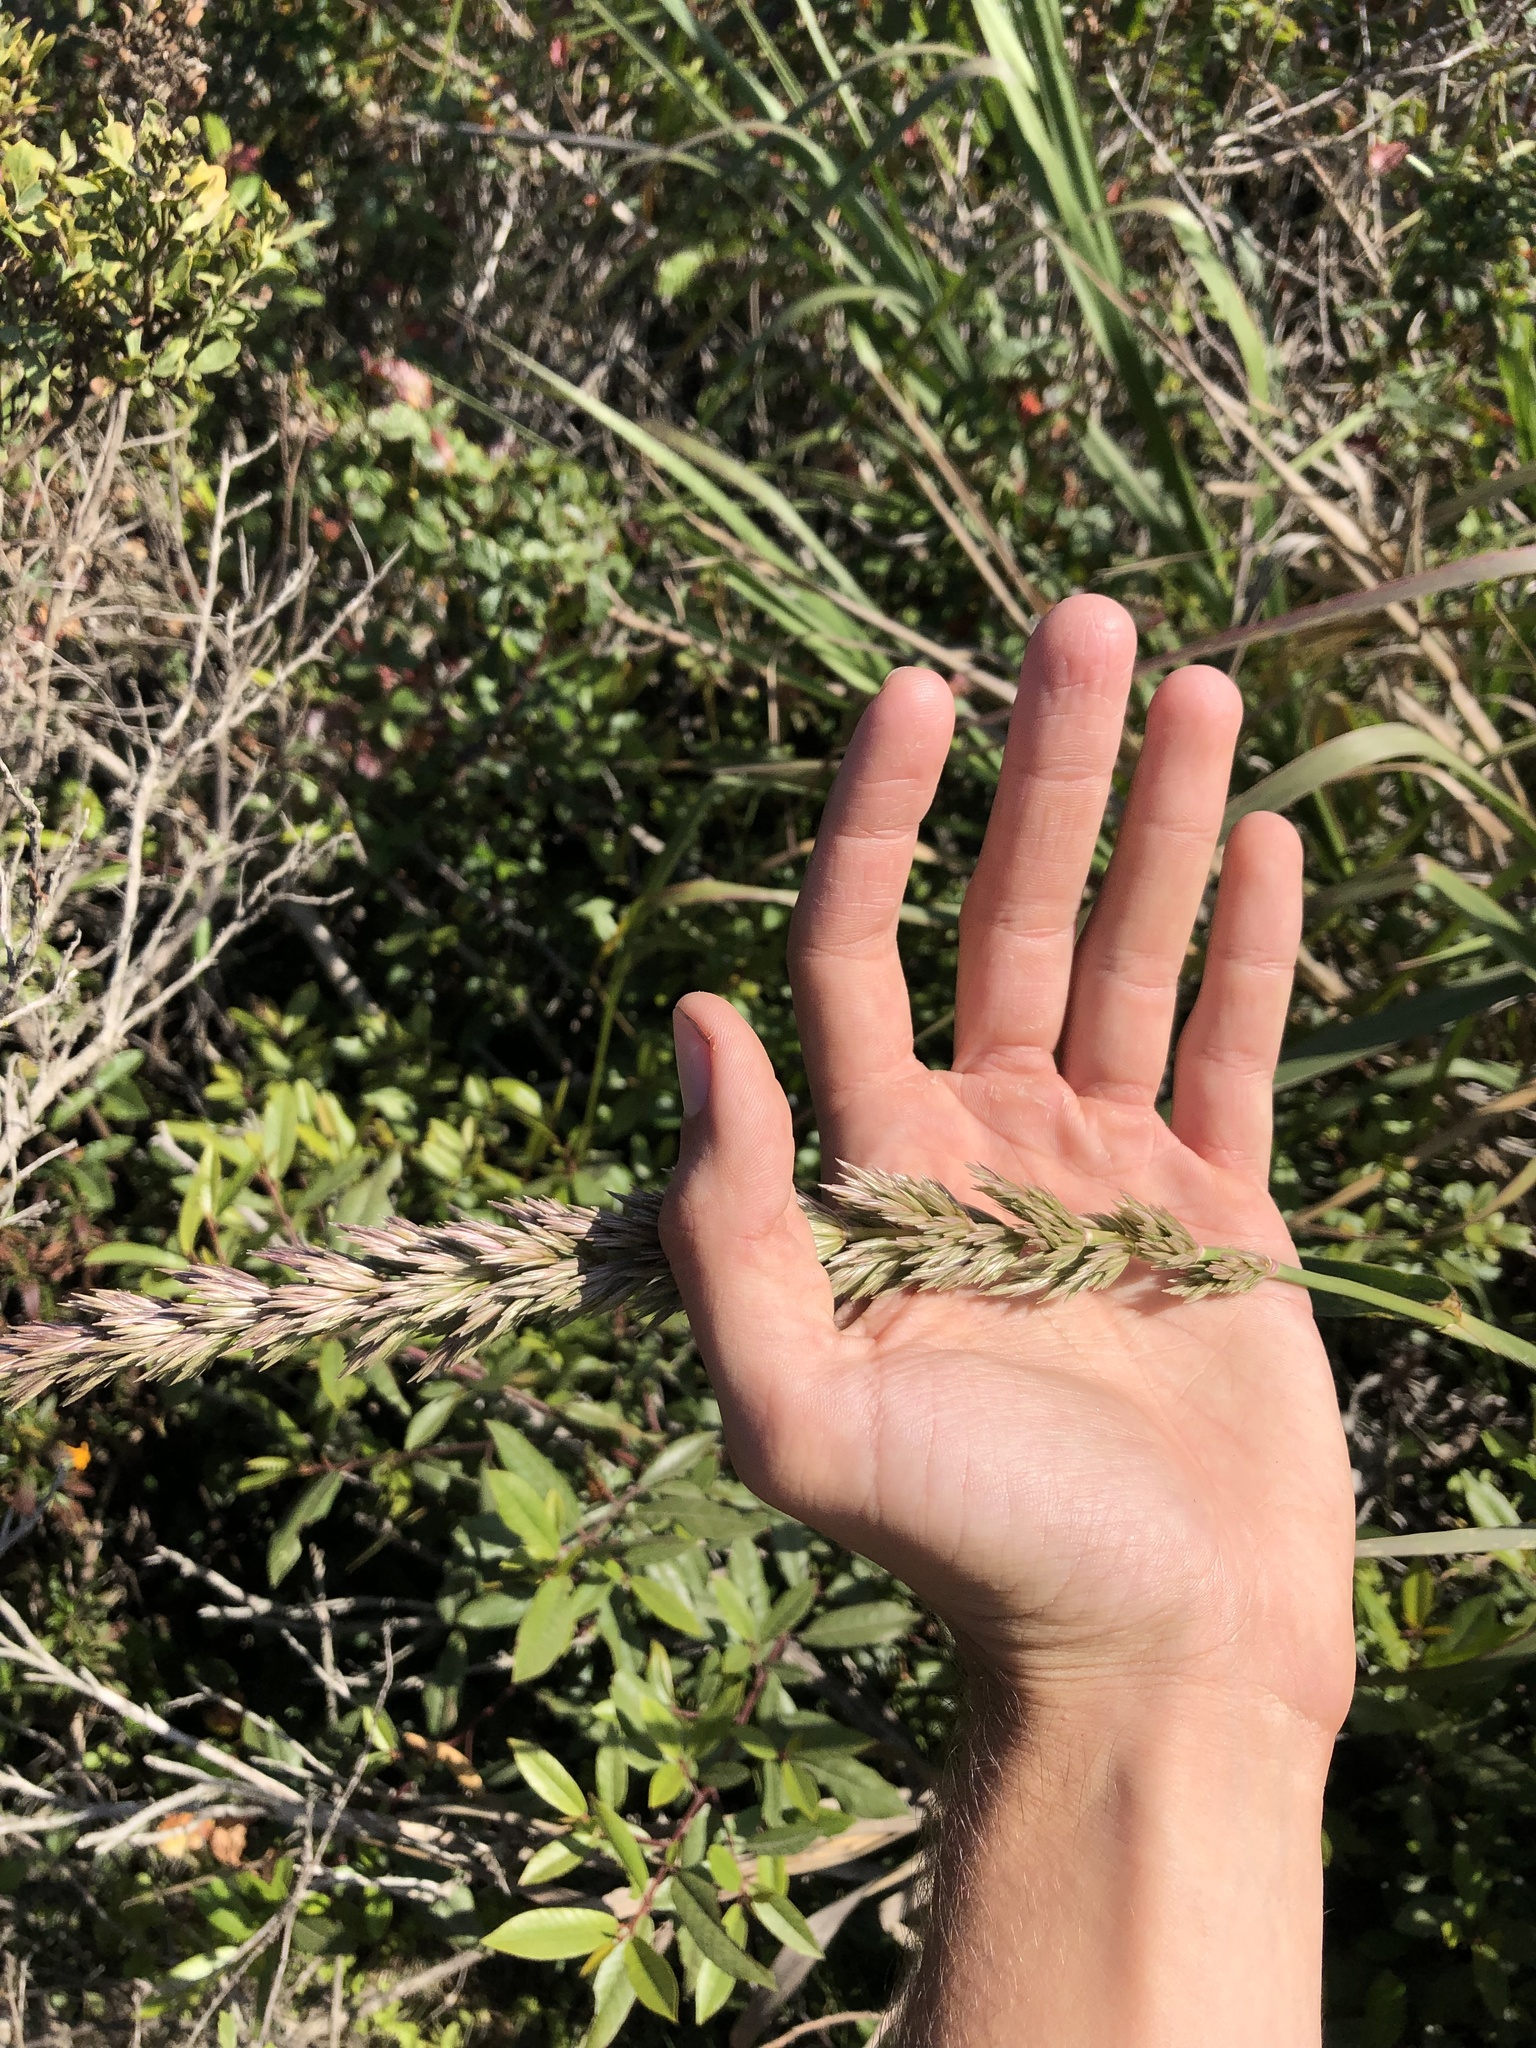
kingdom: Plantae
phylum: Tracheophyta
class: Liliopsida
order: Poales
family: Poaceae
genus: Leymus
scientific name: Leymus condensatus
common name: Giant wild rye
